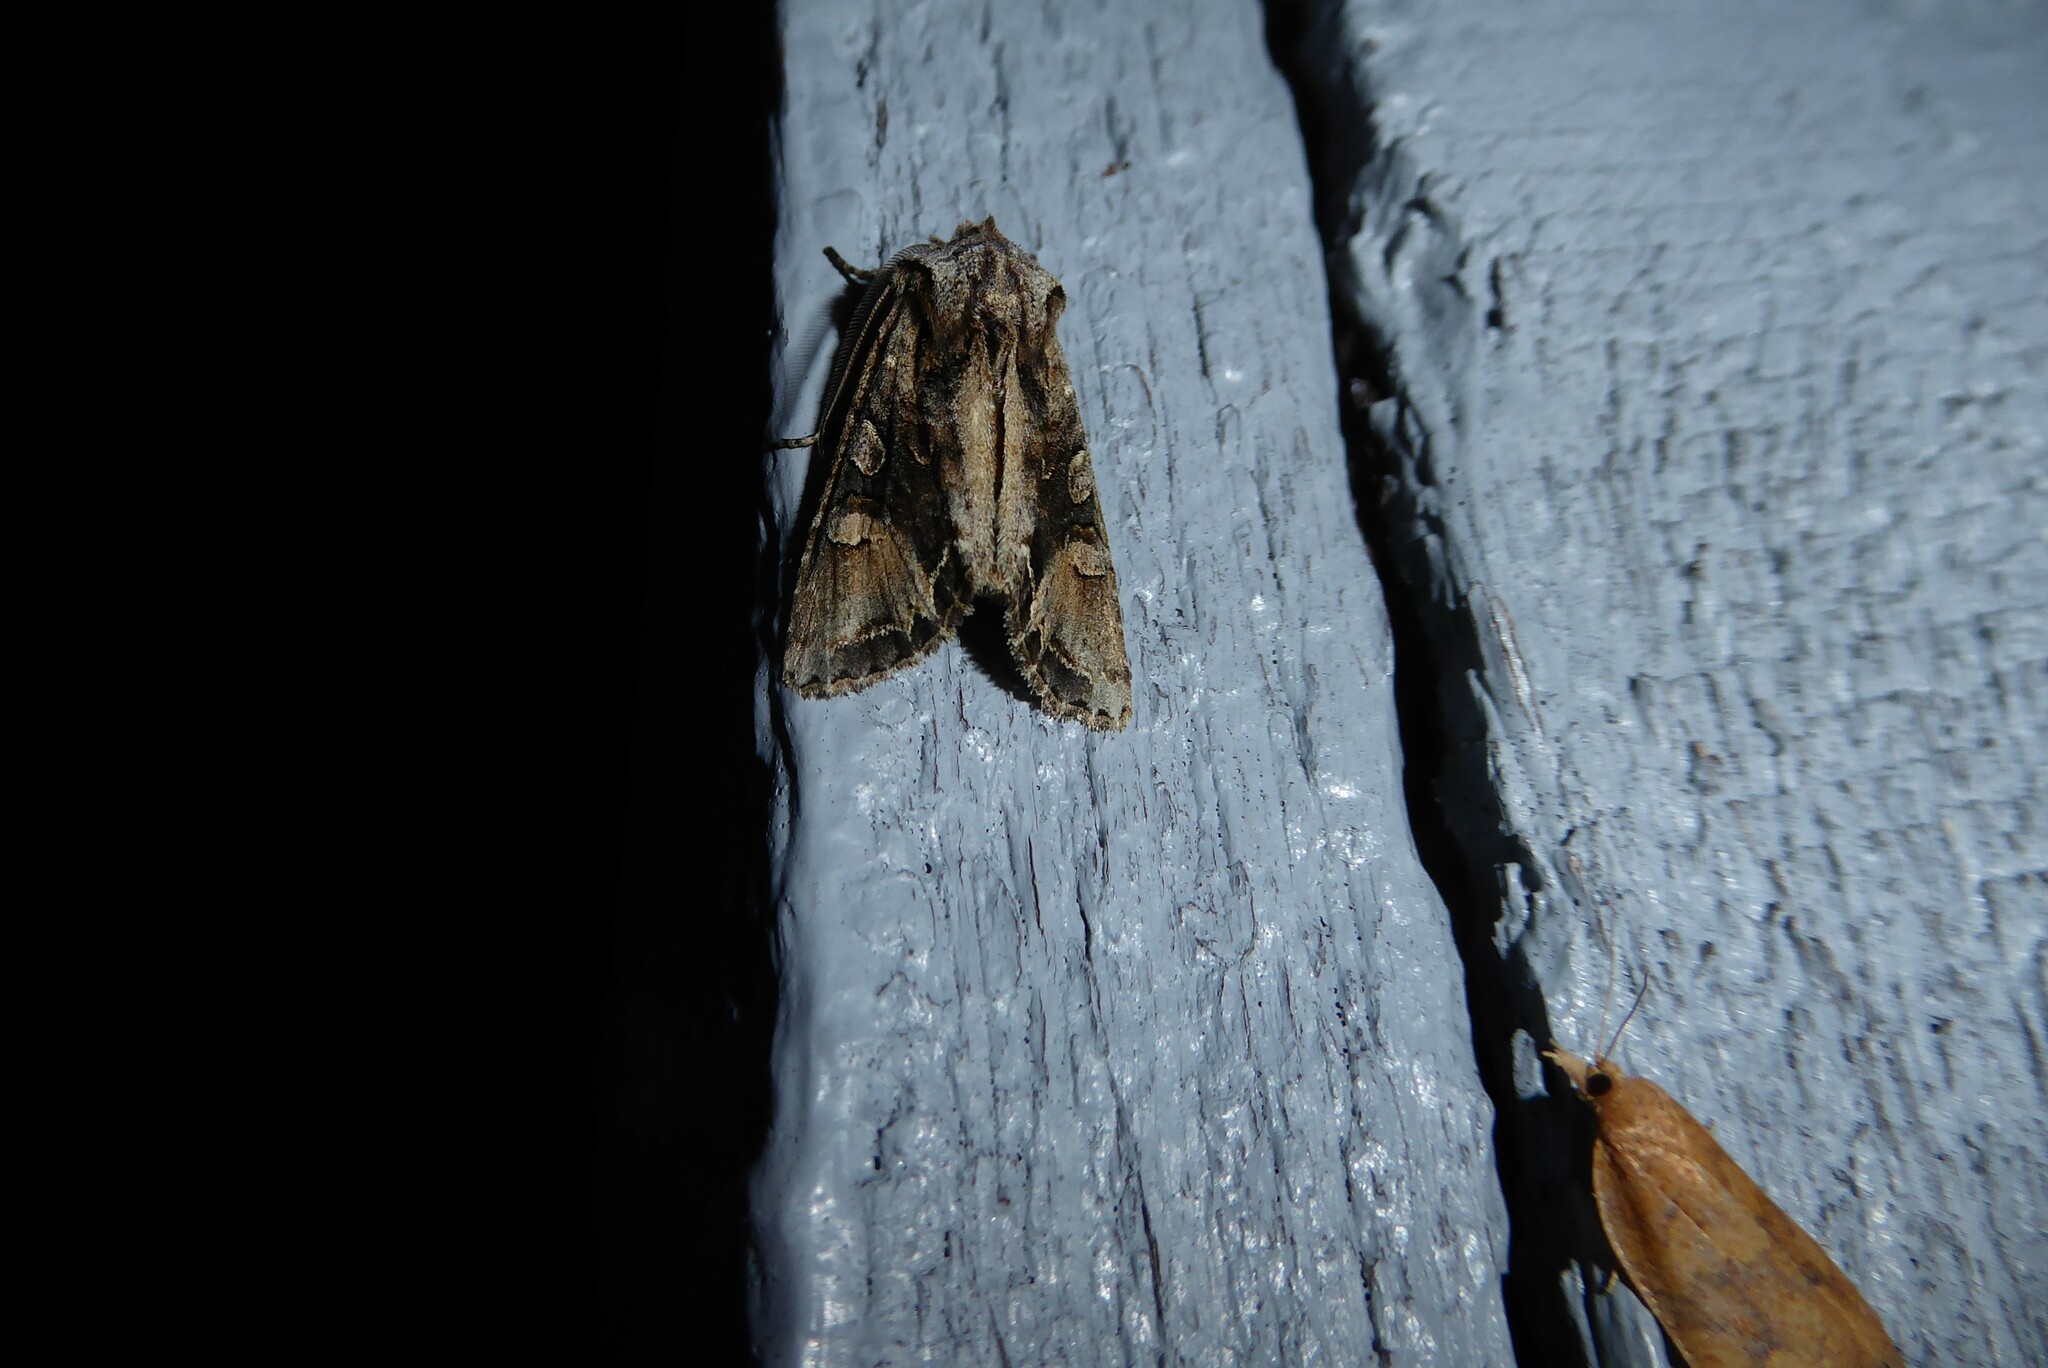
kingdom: Animalia
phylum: Arthropoda
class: Insecta
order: Lepidoptera
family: Noctuidae
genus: Ichneutica
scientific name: Ichneutica
